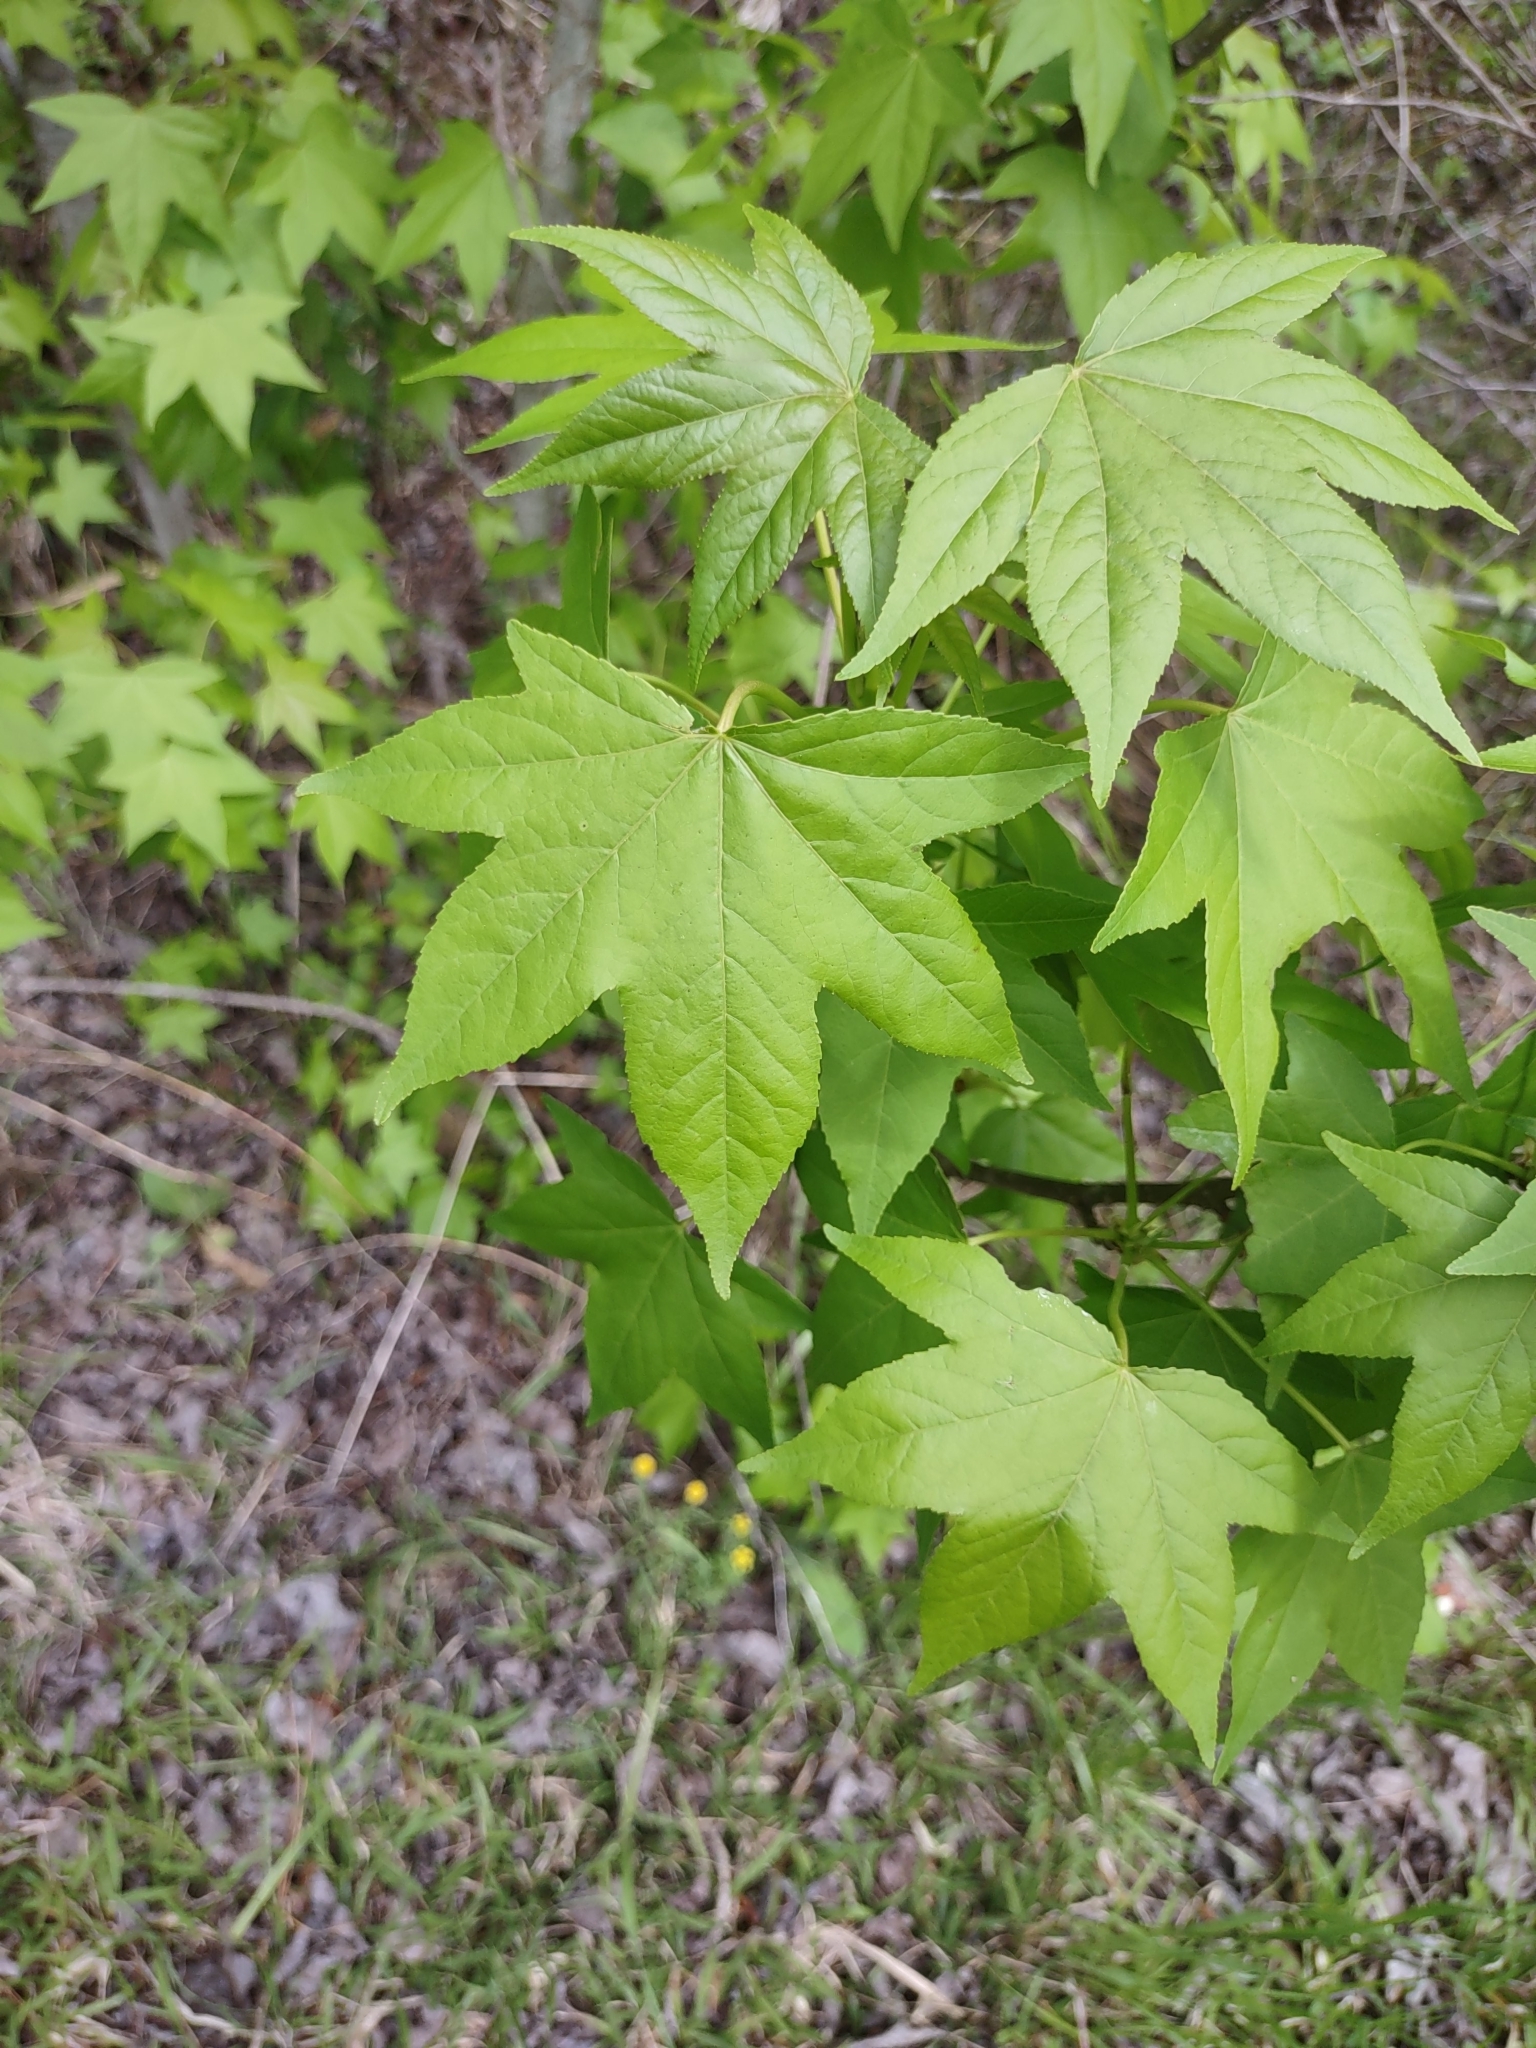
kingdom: Plantae
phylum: Tracheophyta
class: Magnoliopsida
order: Saxifragales
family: Altingiaceae
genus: Liquidambar
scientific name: Liquidambar styraciflua
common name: Sweet gum
